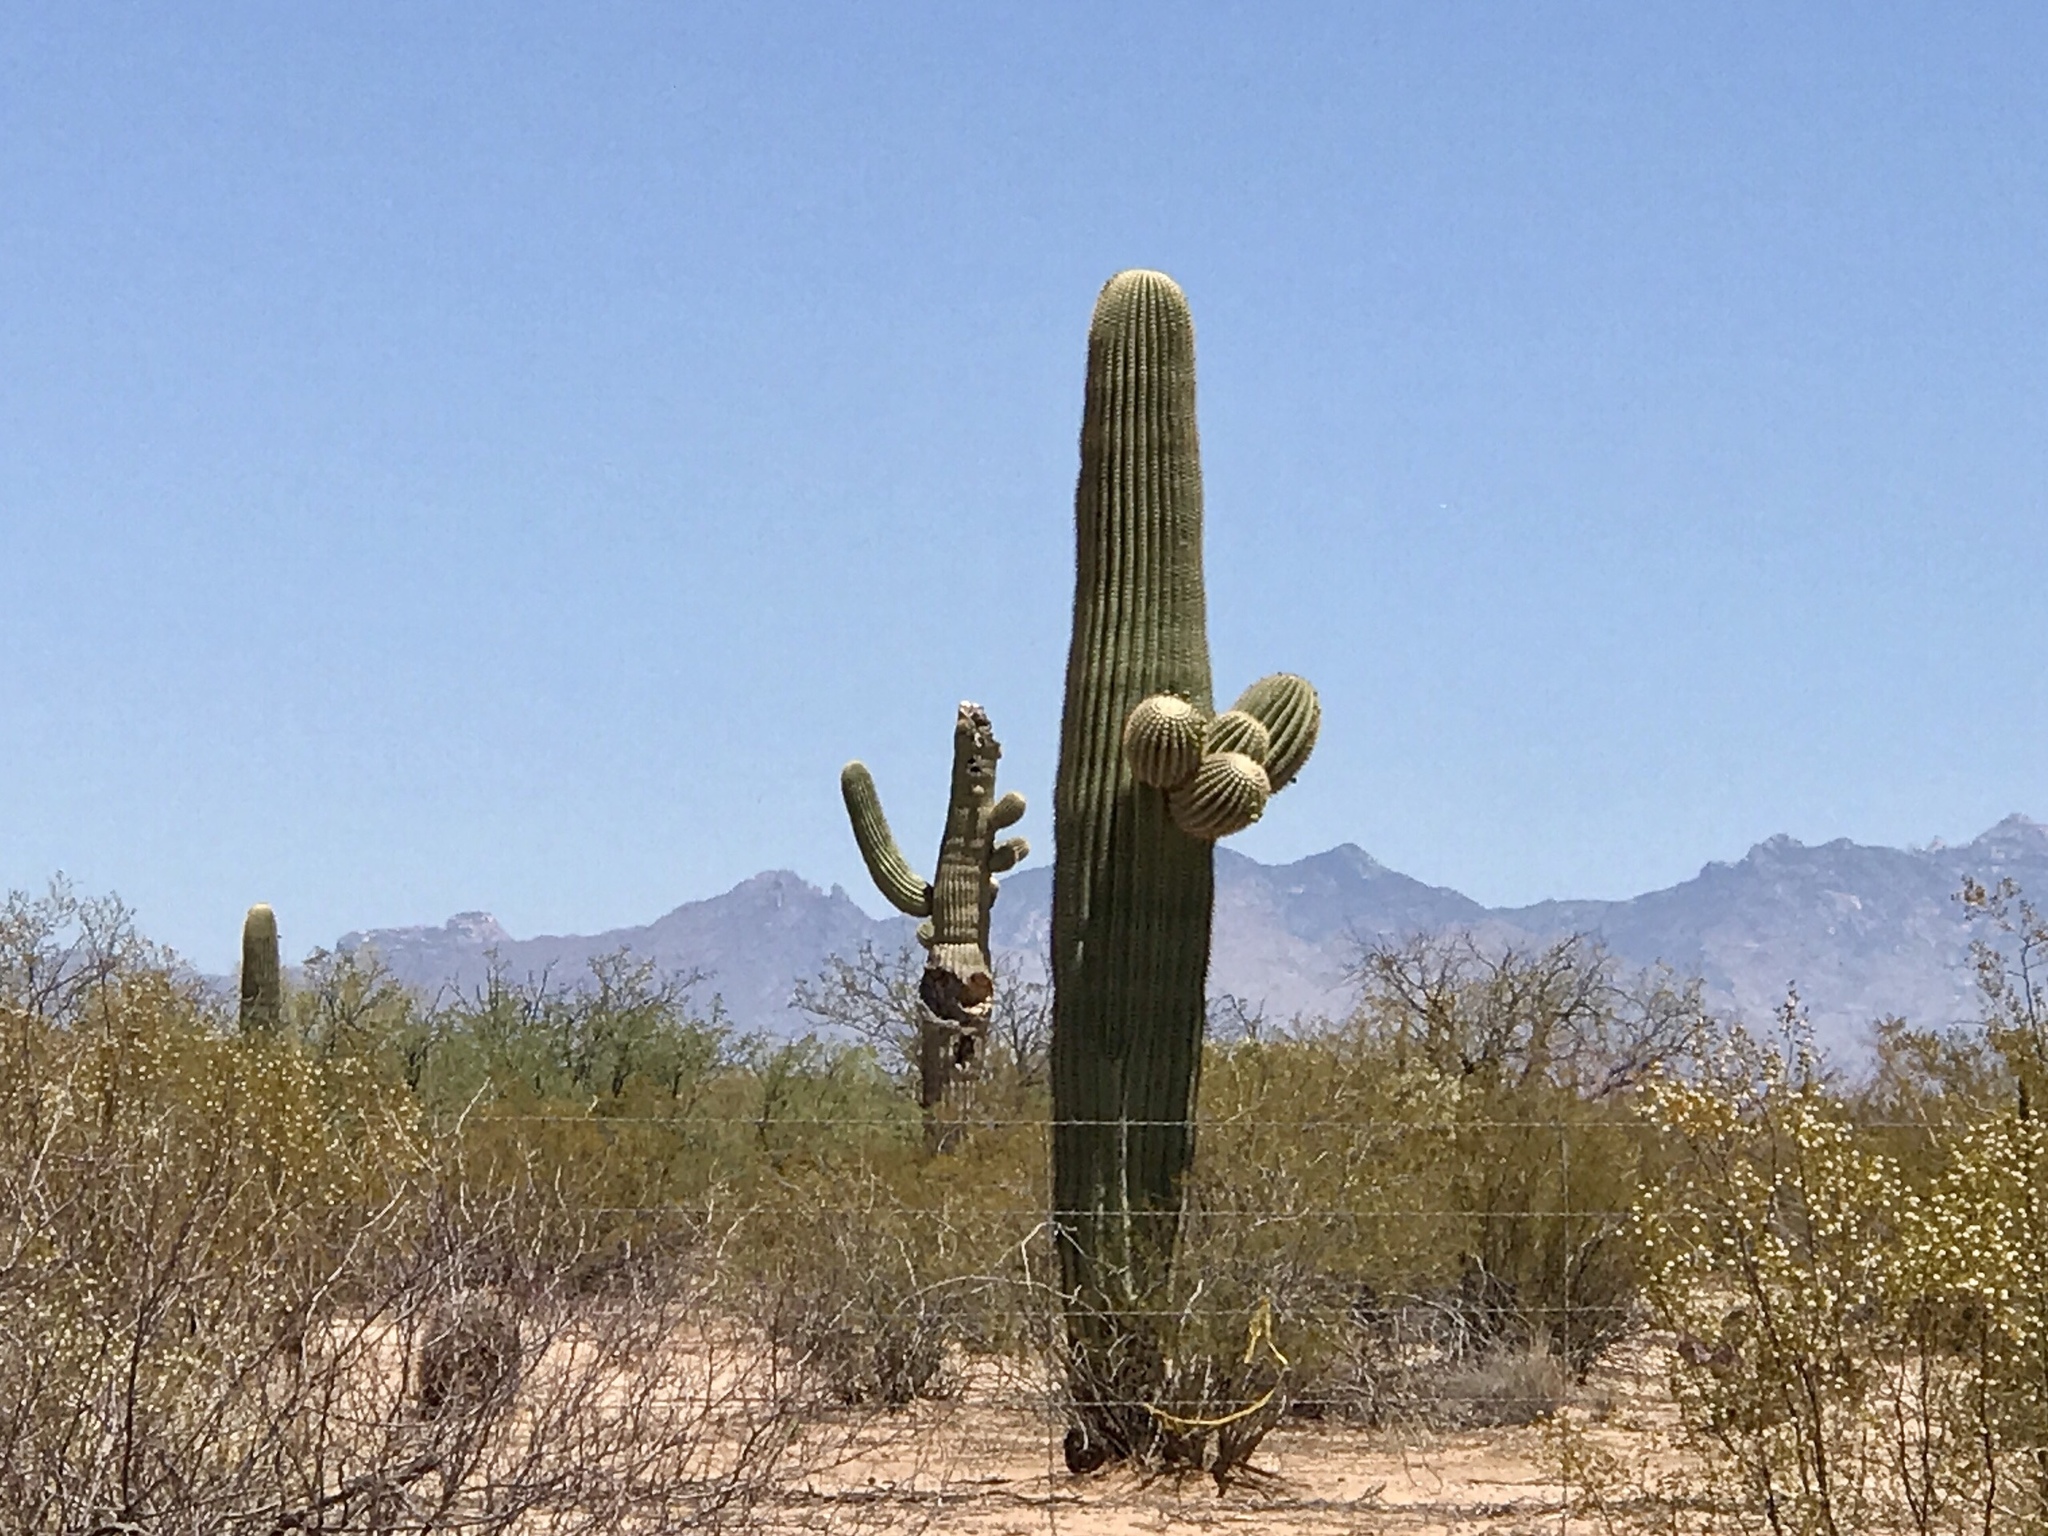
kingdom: Plantae
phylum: Tracheophyta
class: Magnoliopsida
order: Caryophyllales
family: Cactaceae
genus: Carnegiea
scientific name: Carnegiea gigantea
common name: Saguaro
